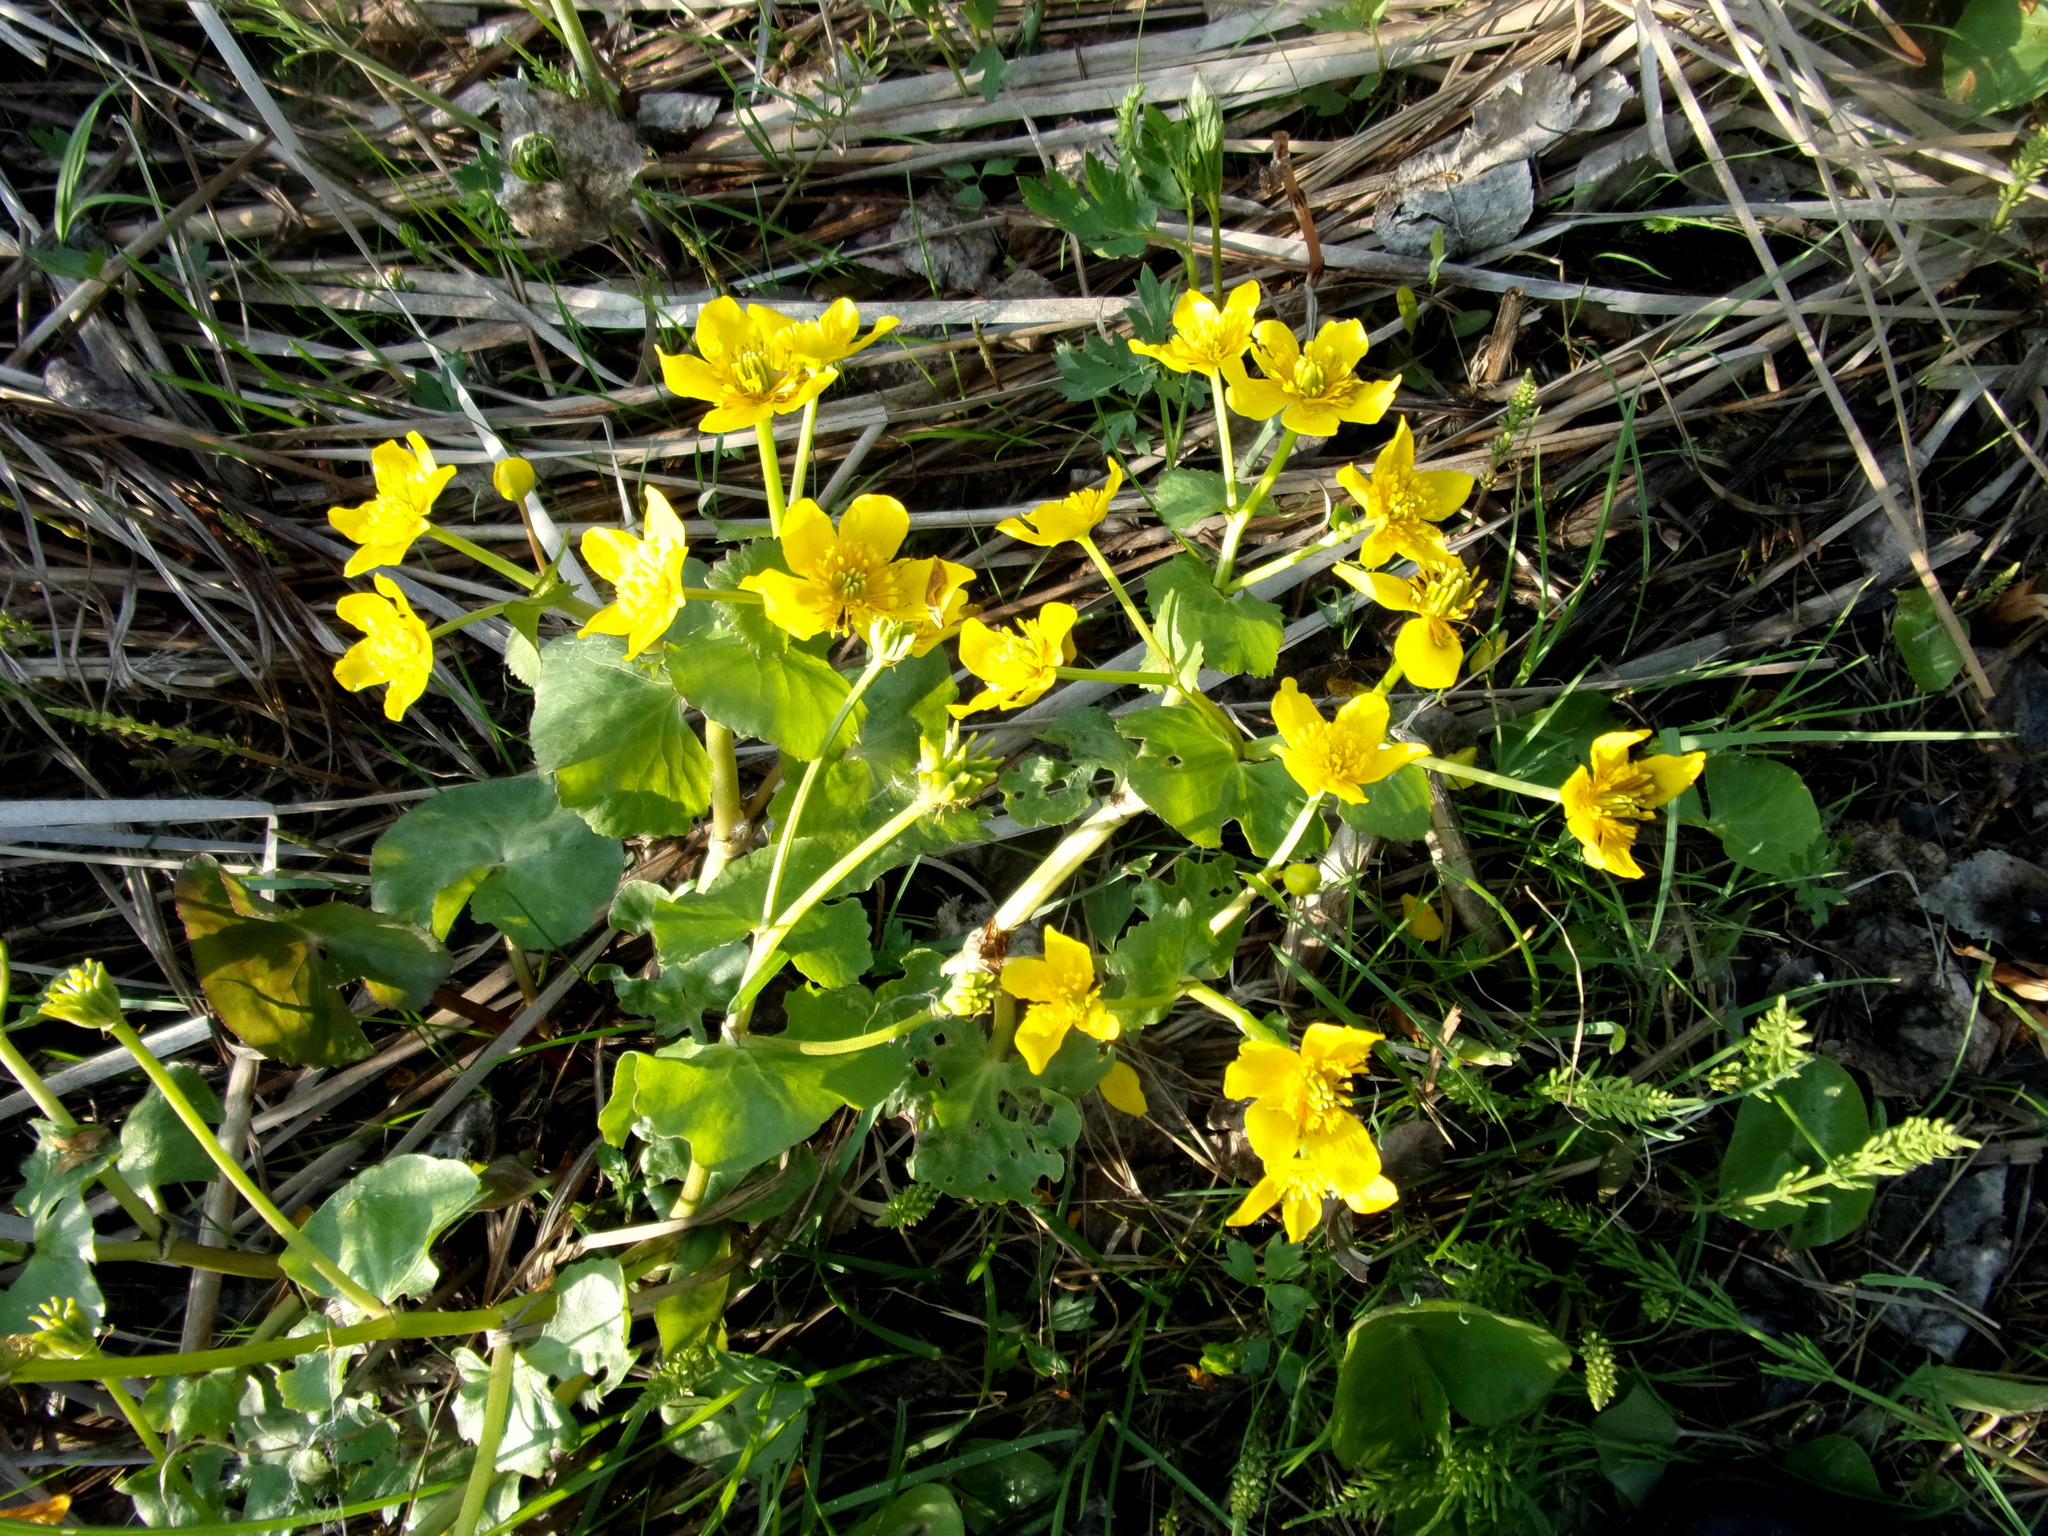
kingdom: Plantae
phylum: Tracheophyta
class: Magnoliopsida
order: Ranunculales
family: Ranunculaceae
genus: Caltha
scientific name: Caltha palustris
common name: Marsh marigold
